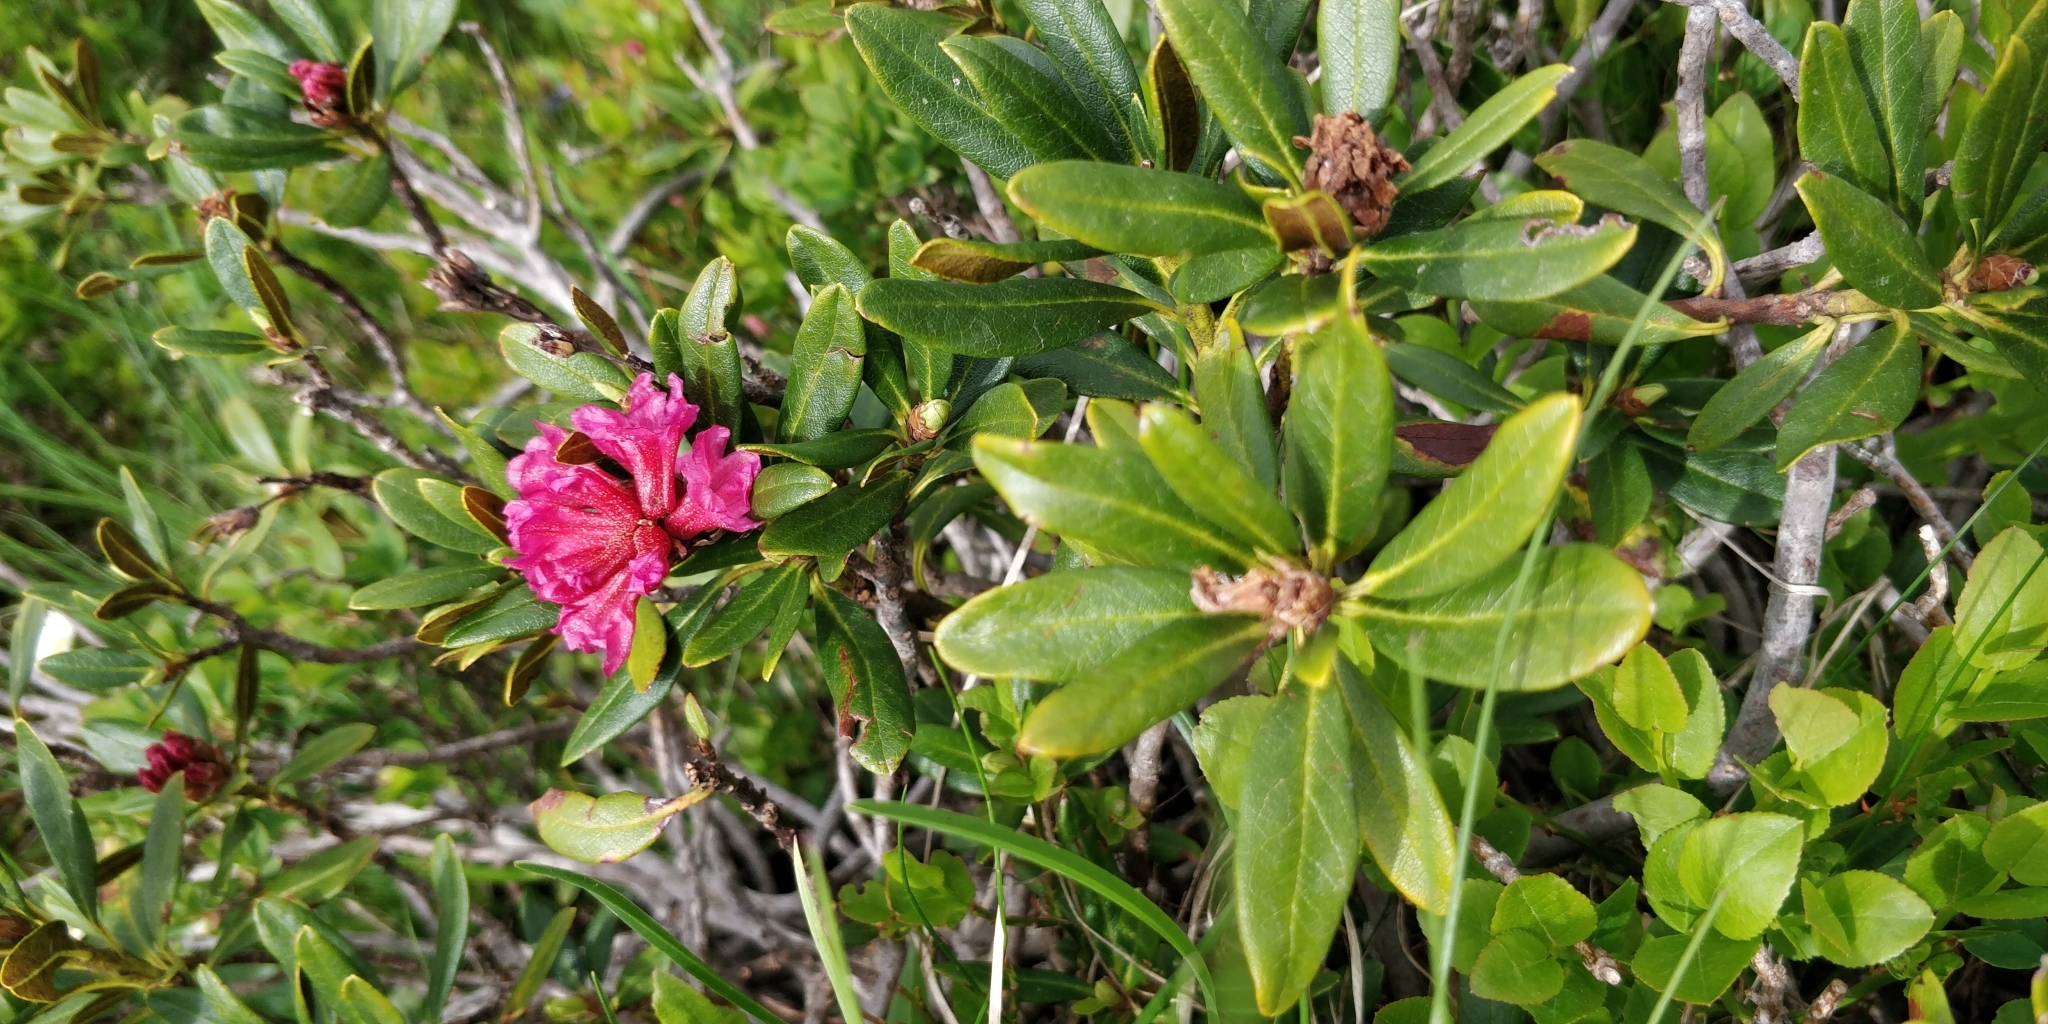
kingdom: Plantae
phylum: Tracheophyta
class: Magnoliopsida
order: Ericales
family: Ericaceae
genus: Rhododendron
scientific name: Rhododendron ferrugineum
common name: Alpenrose
